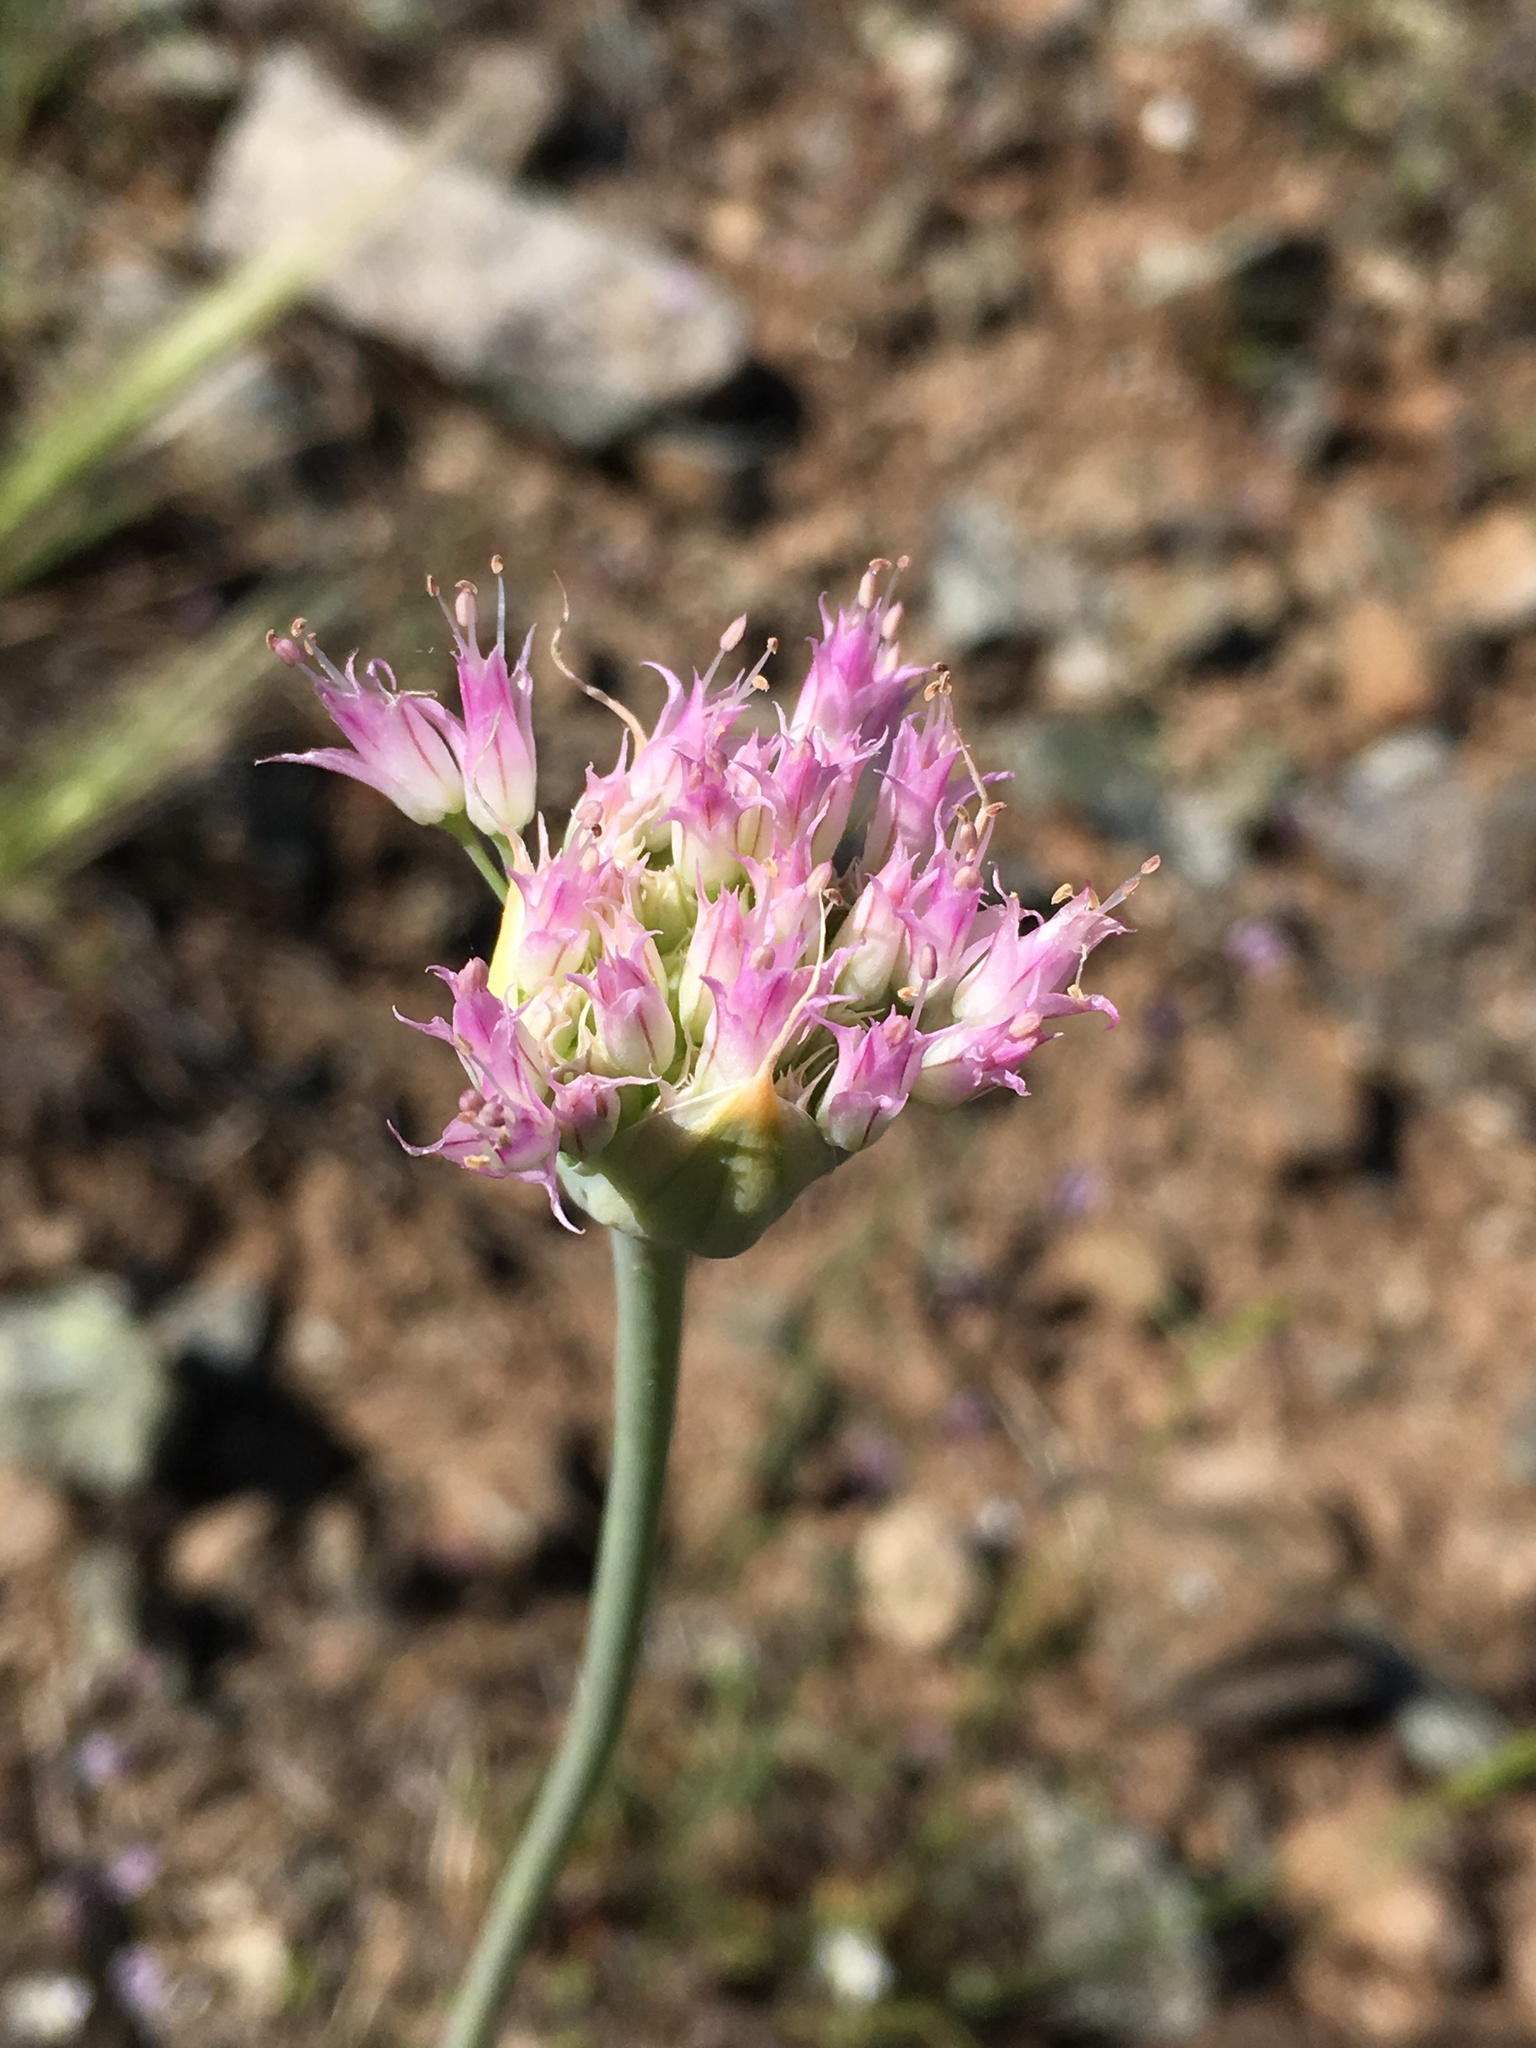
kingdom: Plantae
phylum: Tracheophyta
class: Liliopsida
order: Asparagales
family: Amaryllidaceae
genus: Allium
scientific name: Allium sanbornii
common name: Sanborn's onion
